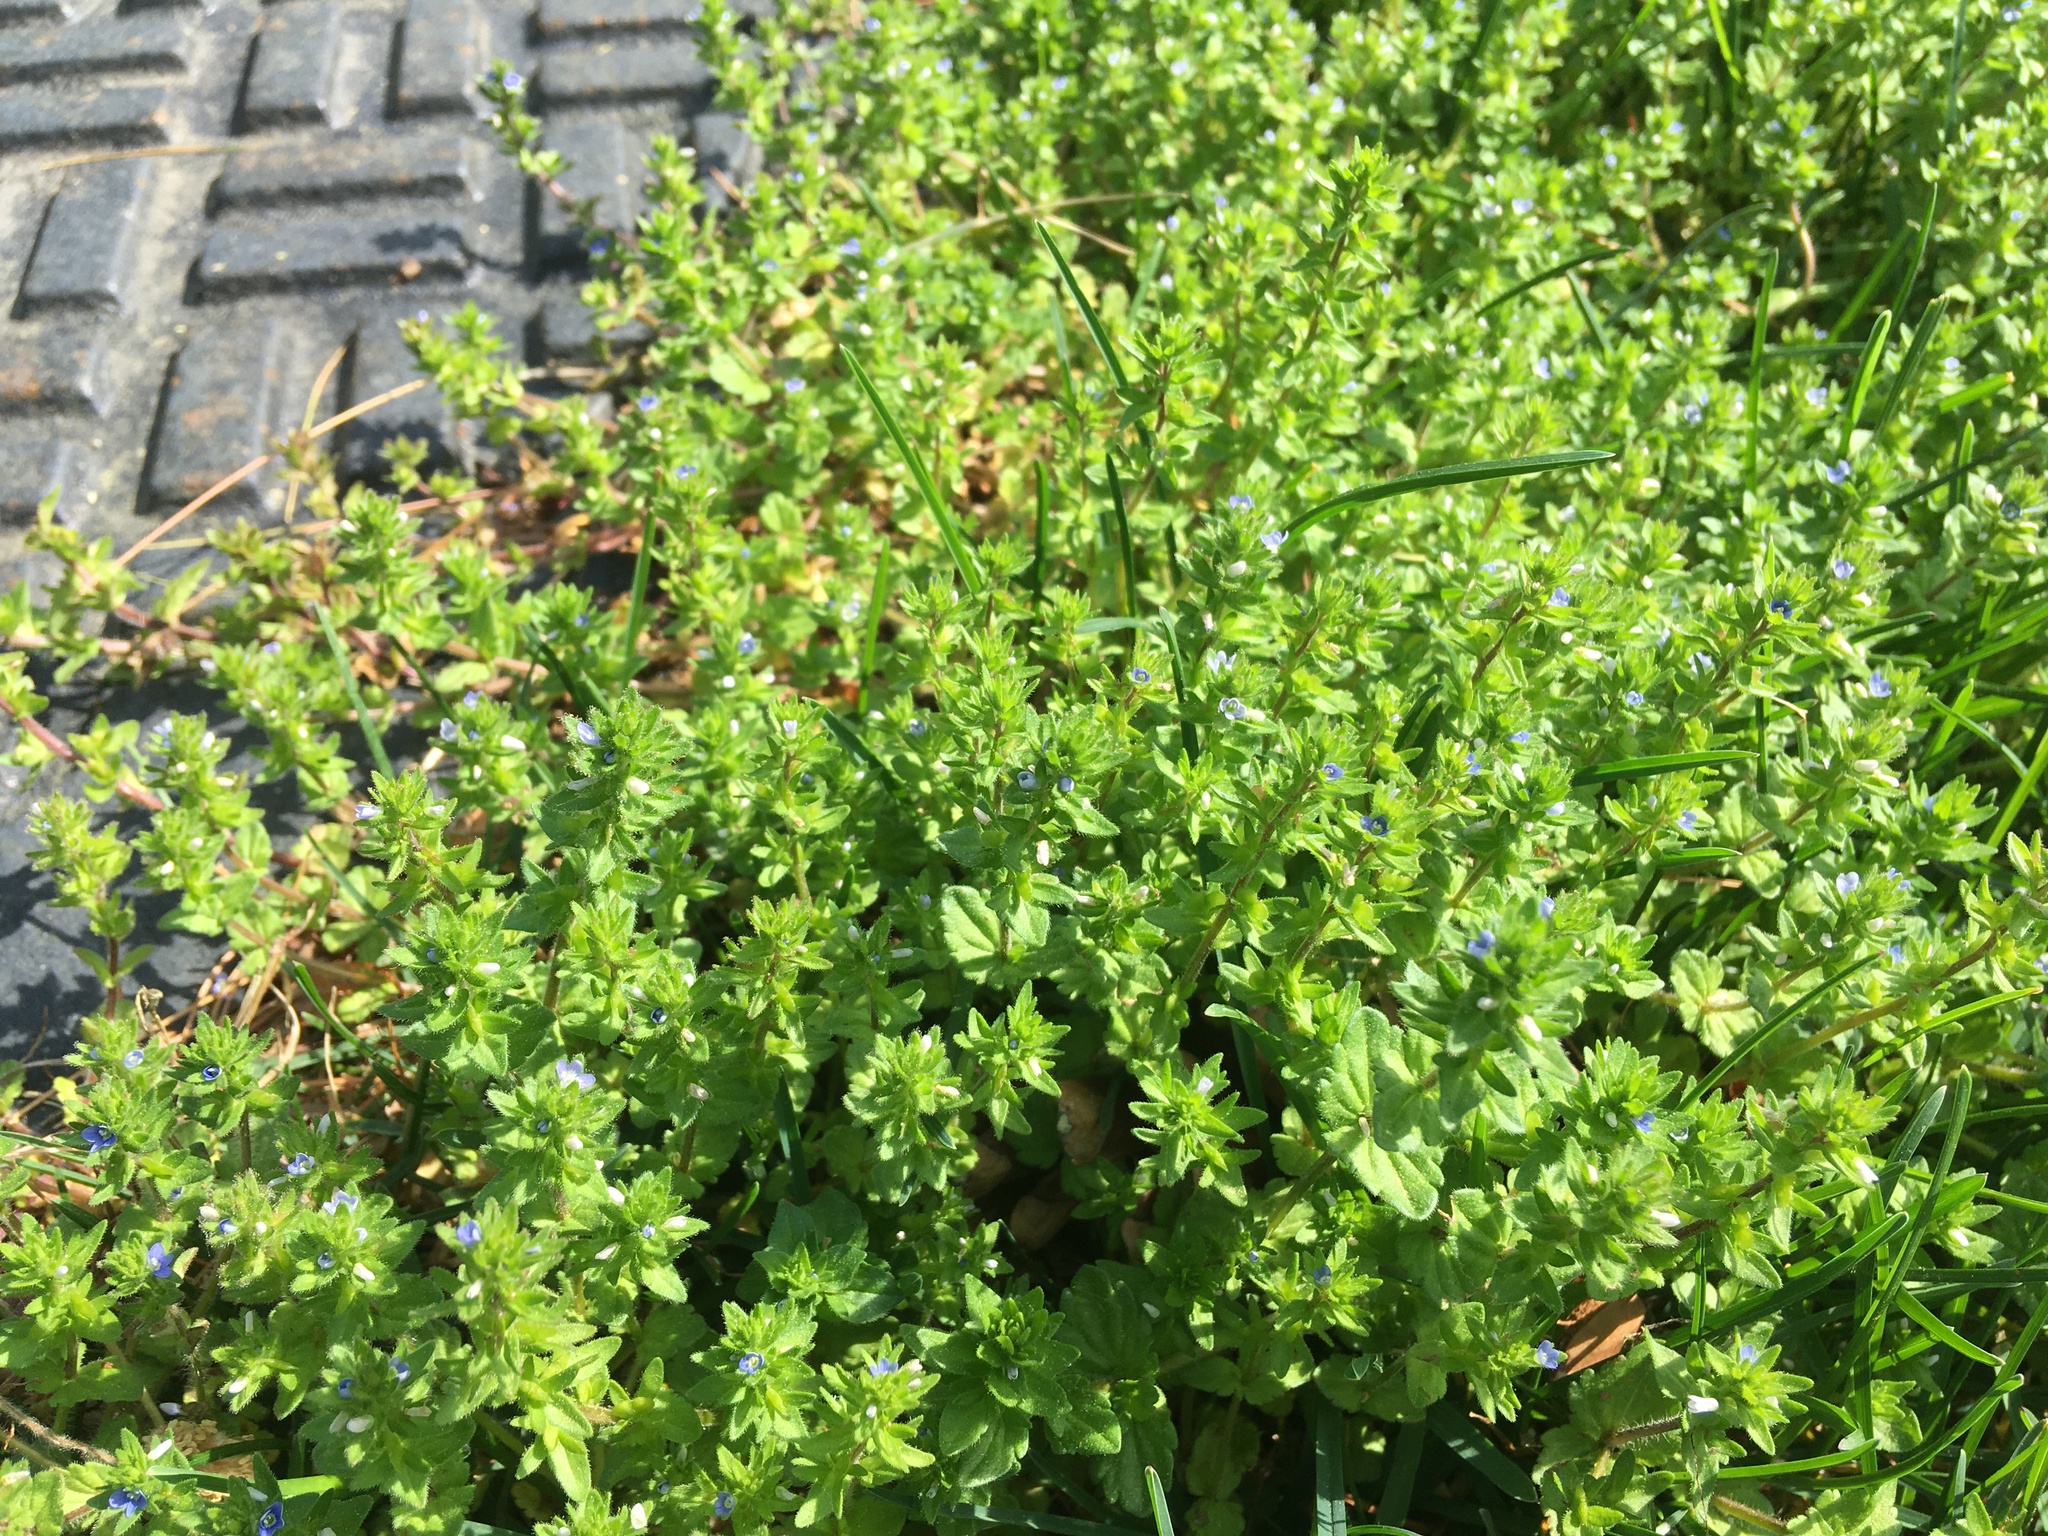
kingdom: Plantae
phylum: Tracheophyta
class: Magnoliopsida
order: Lamiales
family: Plantaginaceae
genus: Veronica
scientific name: Veronica arvensis
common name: Corn speedwell
